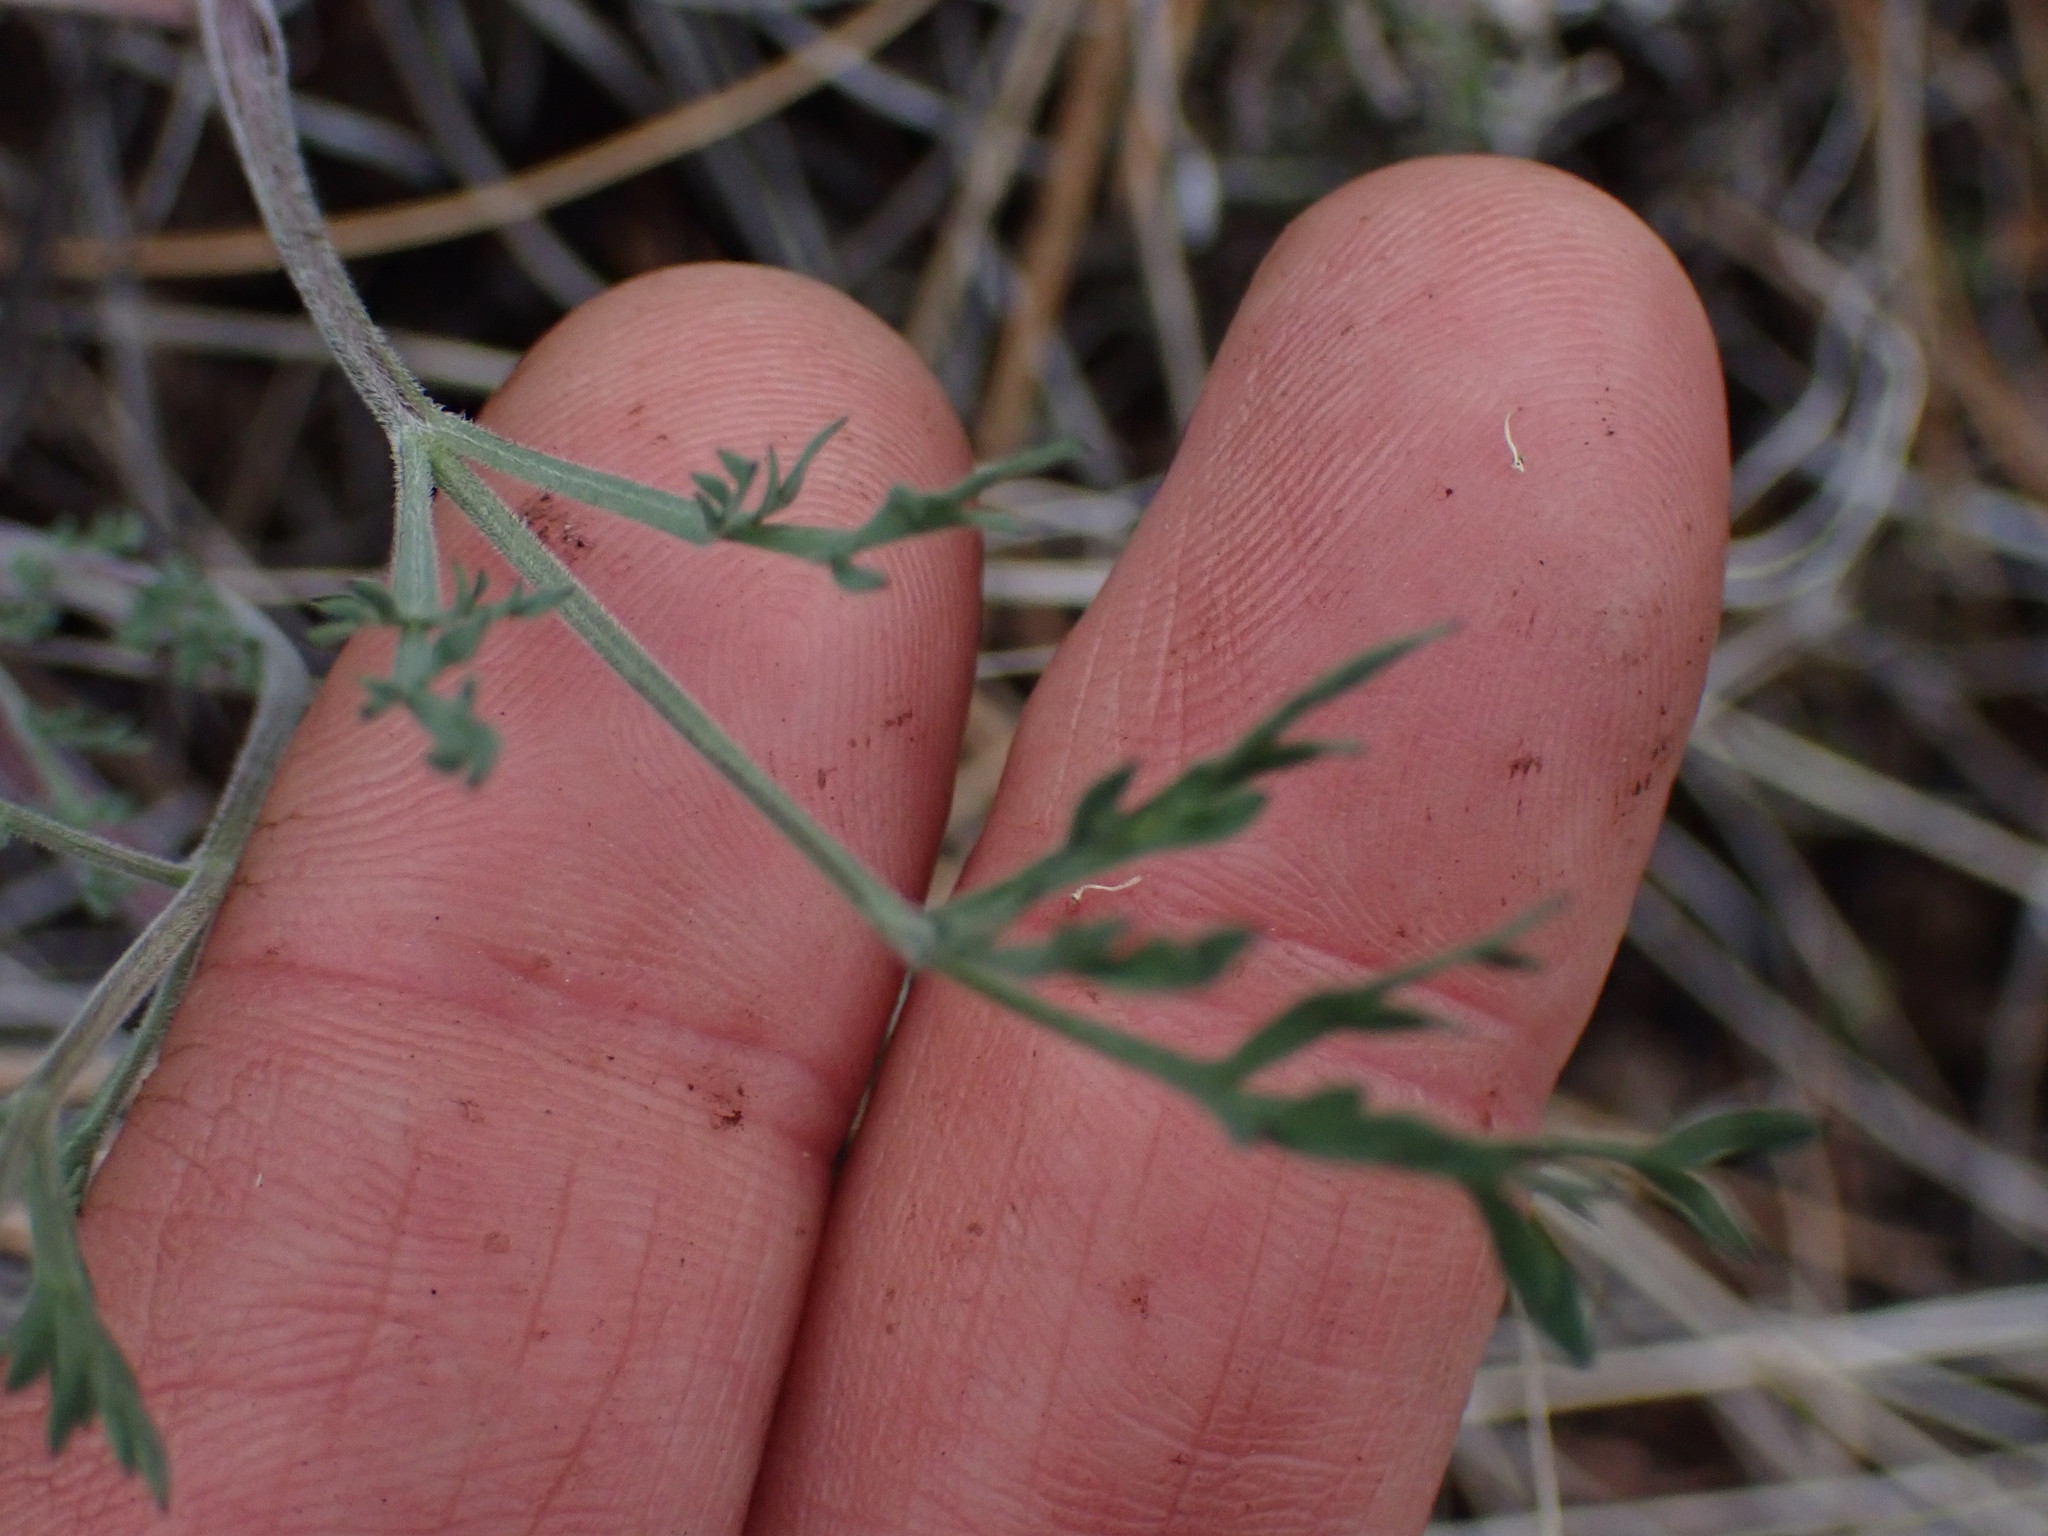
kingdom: Plantae
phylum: Tracheophyta
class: Magnoliopsida
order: Apiales
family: Apiaceae
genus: Lomatium
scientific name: Lomatium macrocarpum
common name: Big-seed biscuitroot
